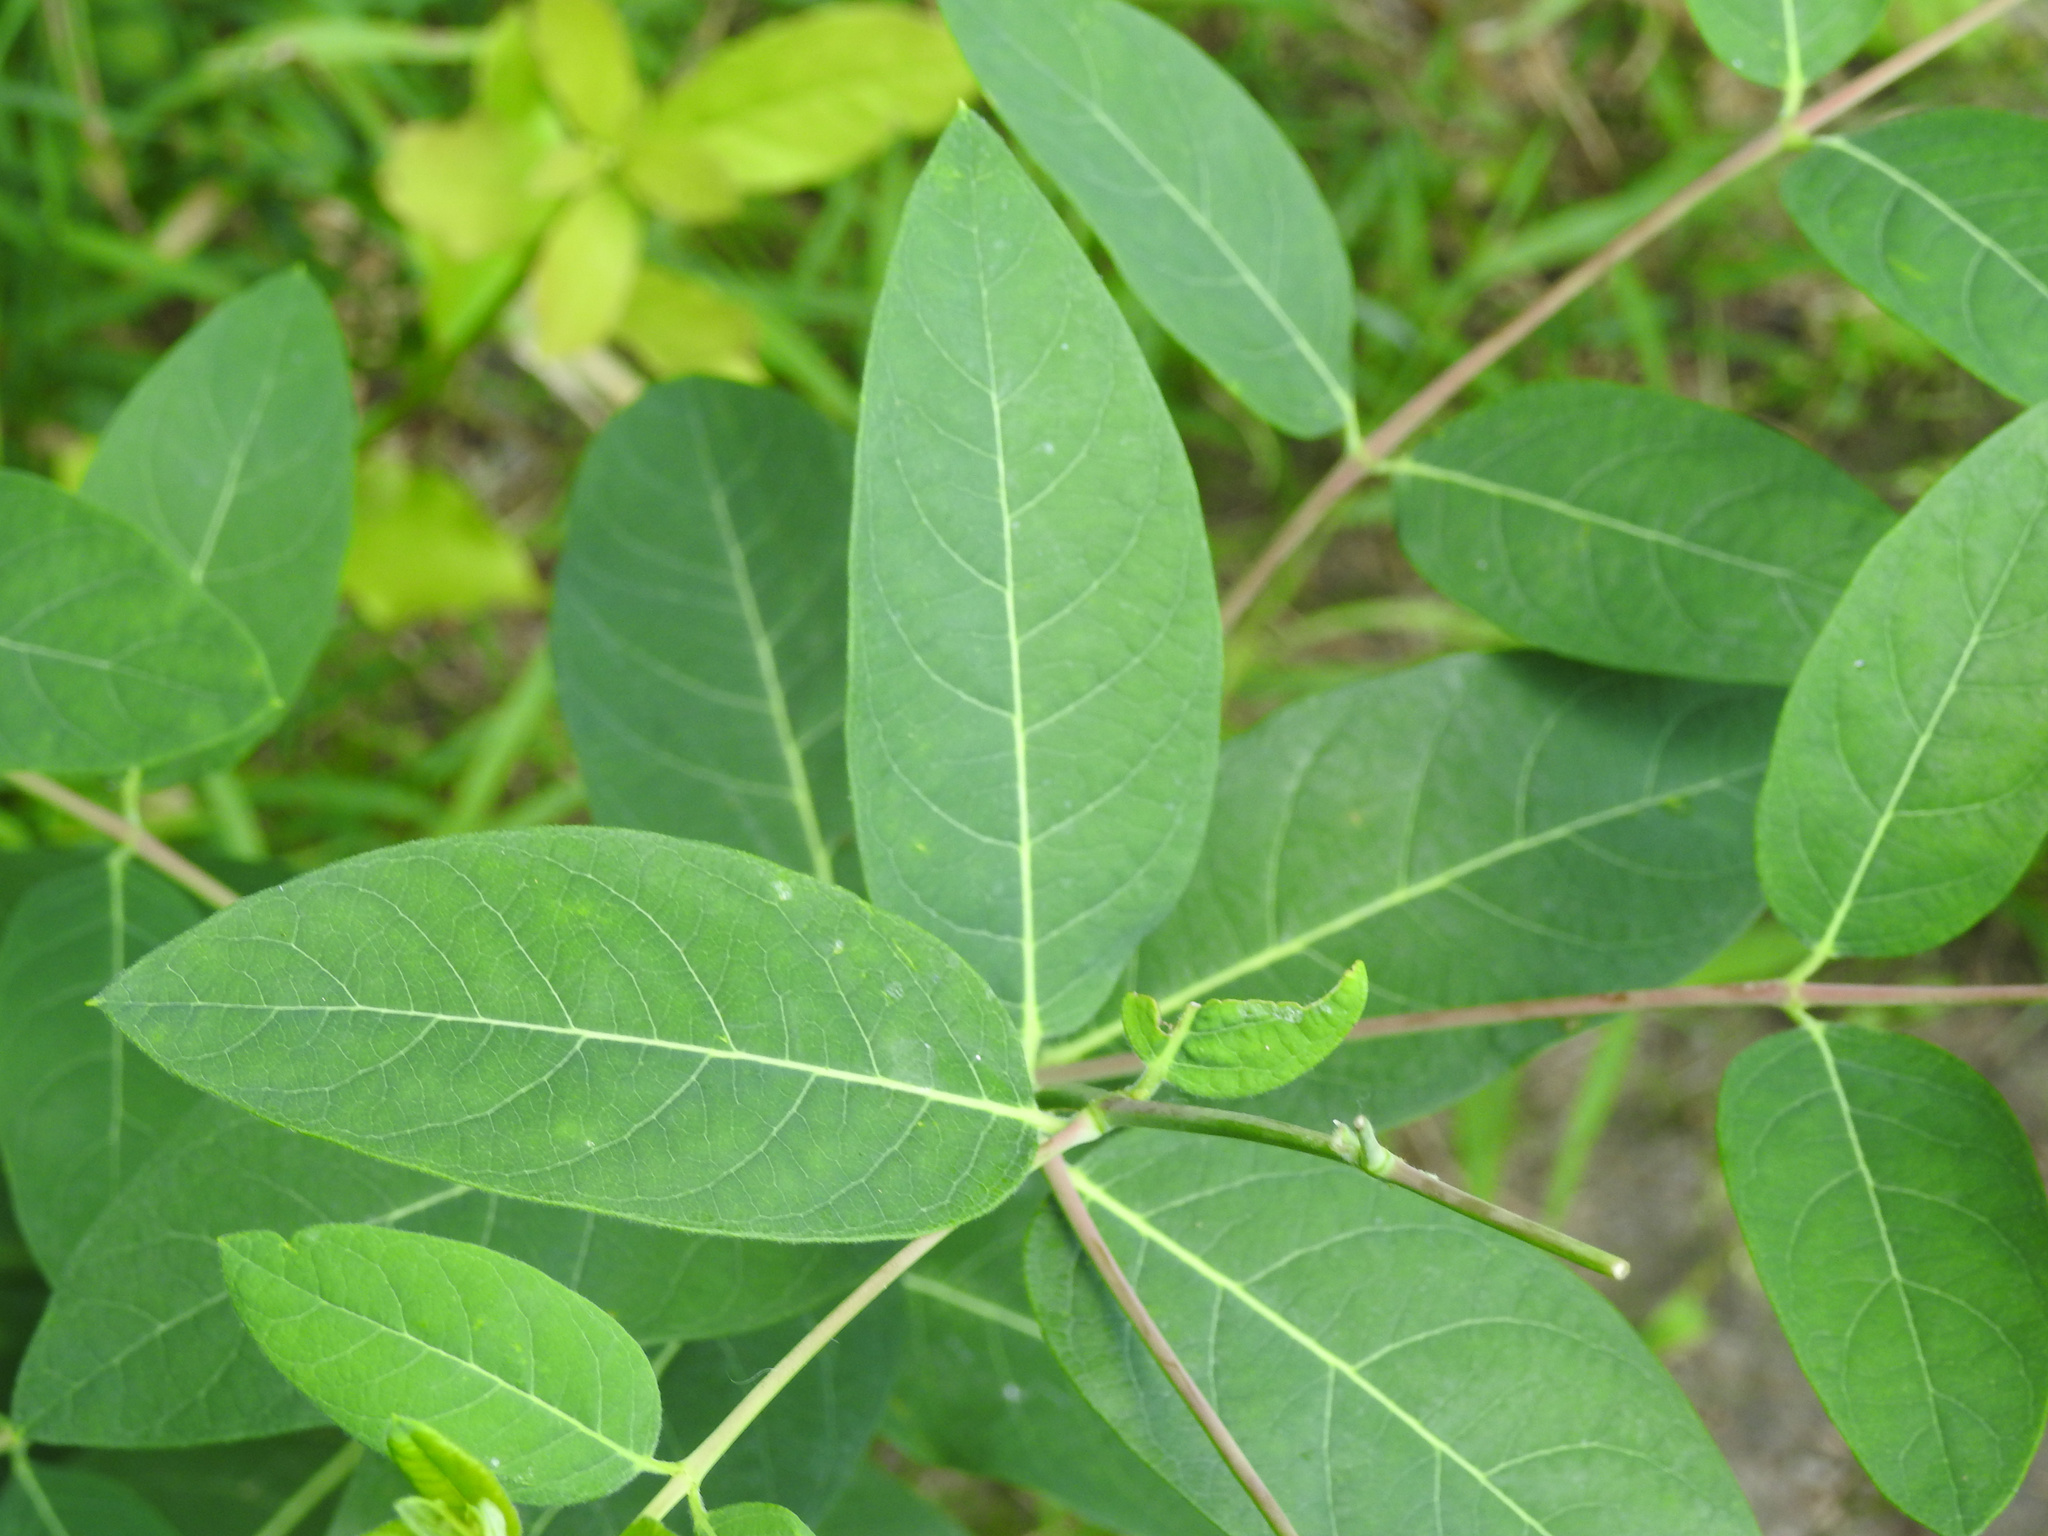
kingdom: Plantae
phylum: Tracheophyta
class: Magnoliopsida
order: Gentianales
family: Apocynaceae
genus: Apocynum
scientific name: Apocynum cannabinum
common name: Hemp dogbane
